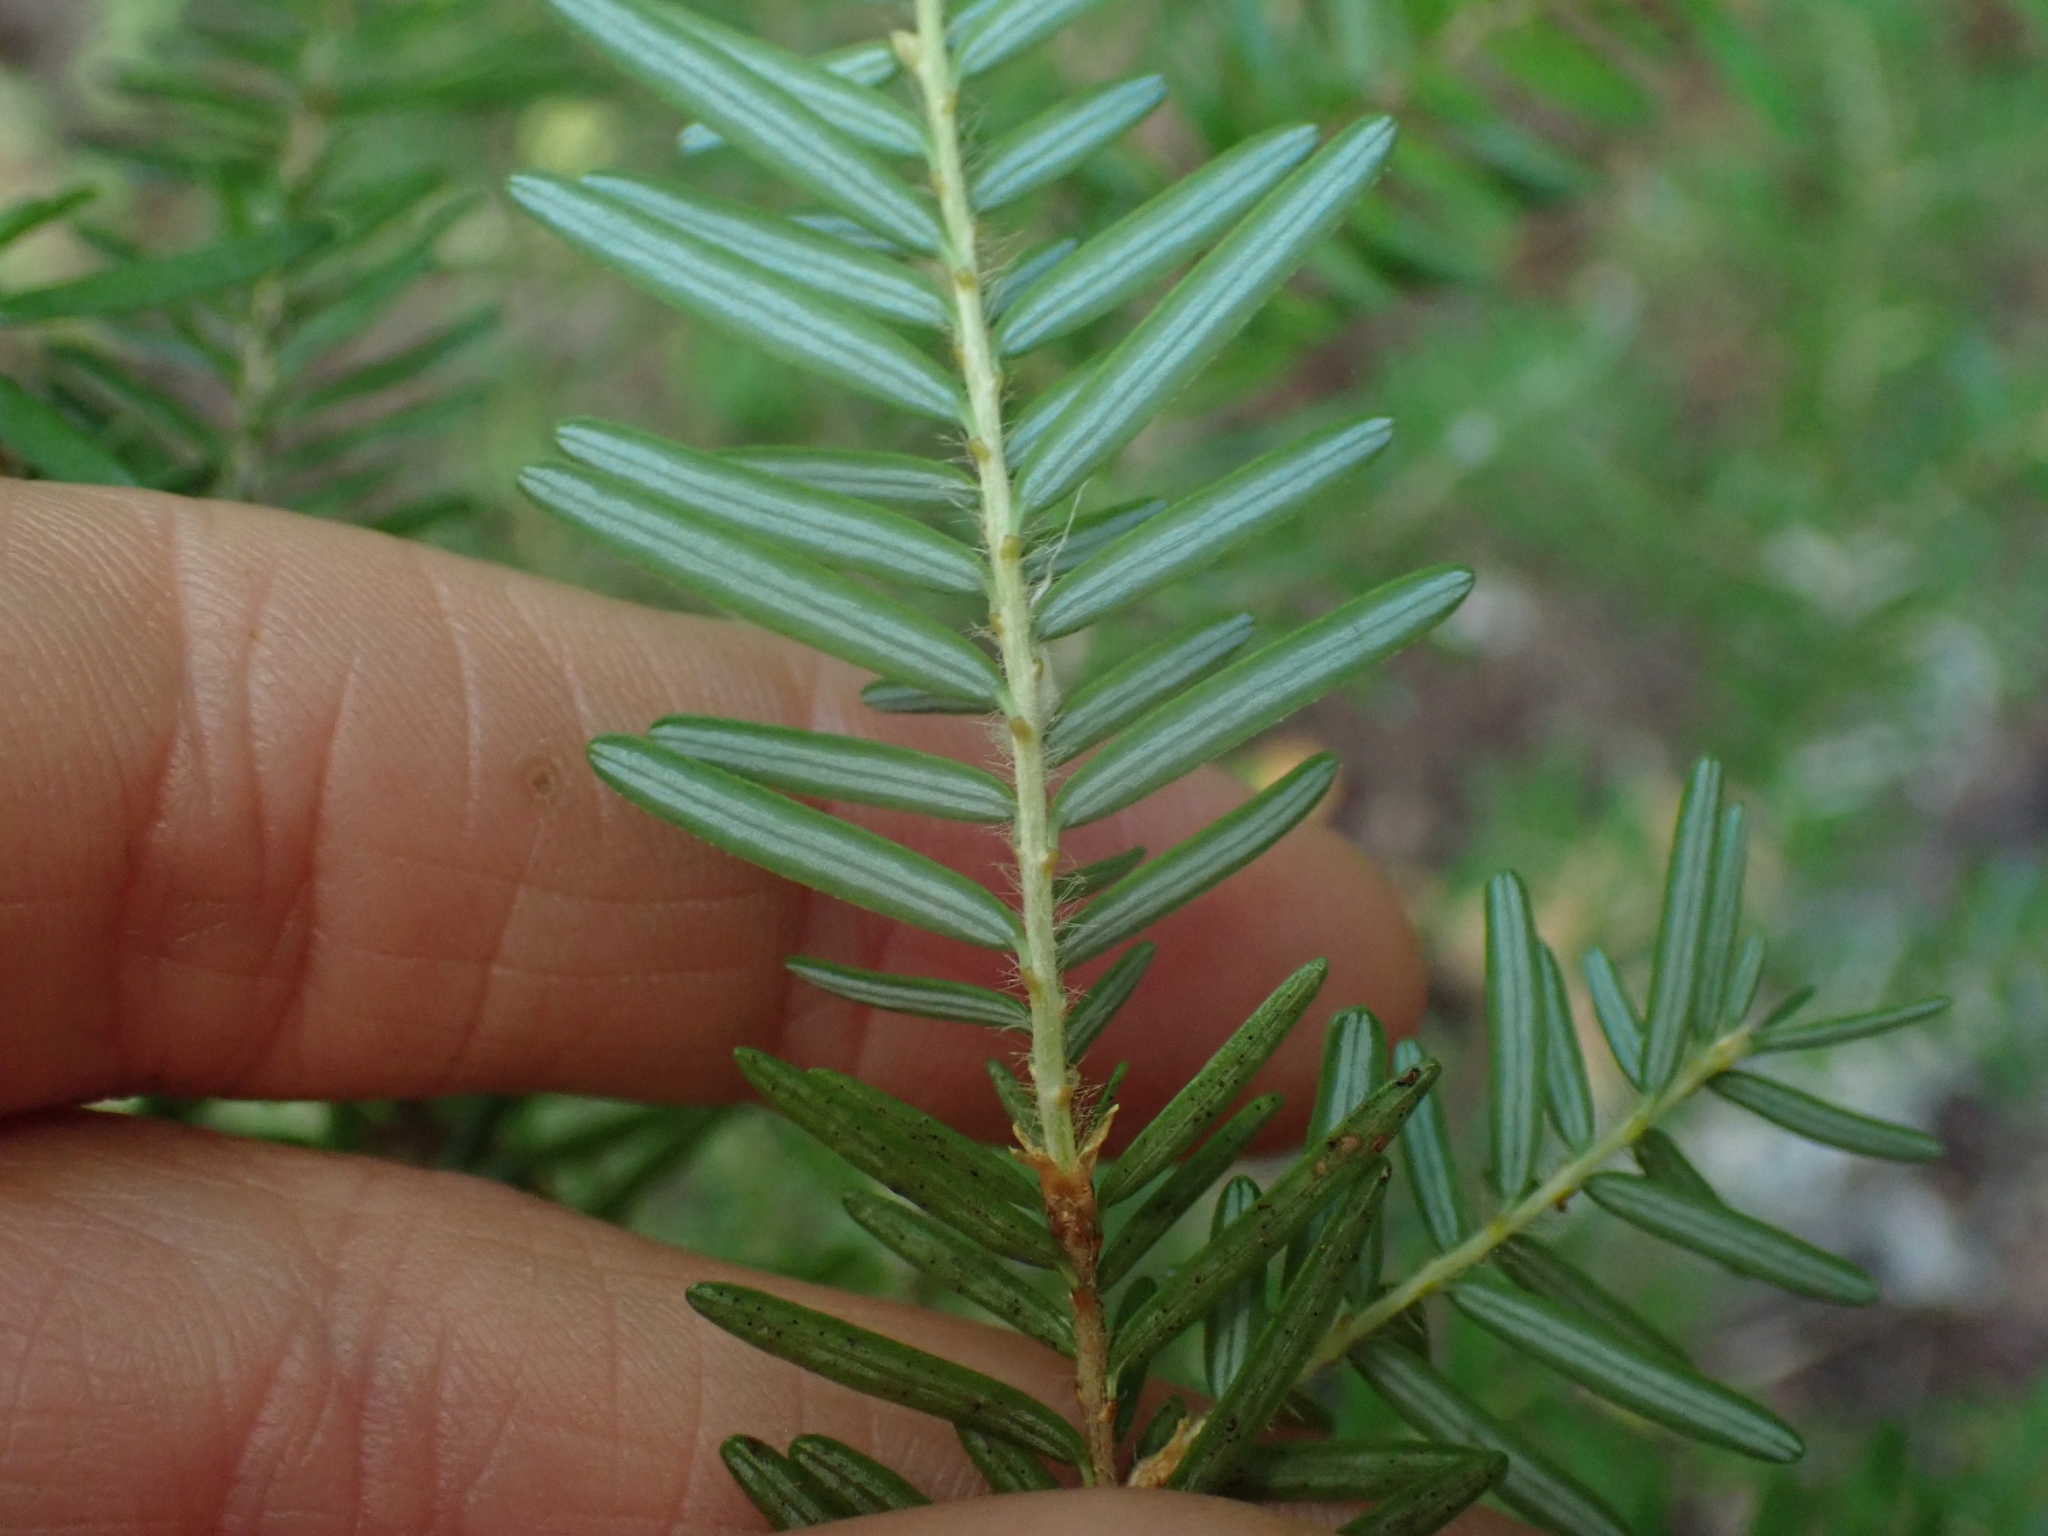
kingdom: Plantae
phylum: Tracheophyta
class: Pinopsida
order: Pinales
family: Pinaceae
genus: Tsuga
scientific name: Tsuga heterophylla
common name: Western hemlock
